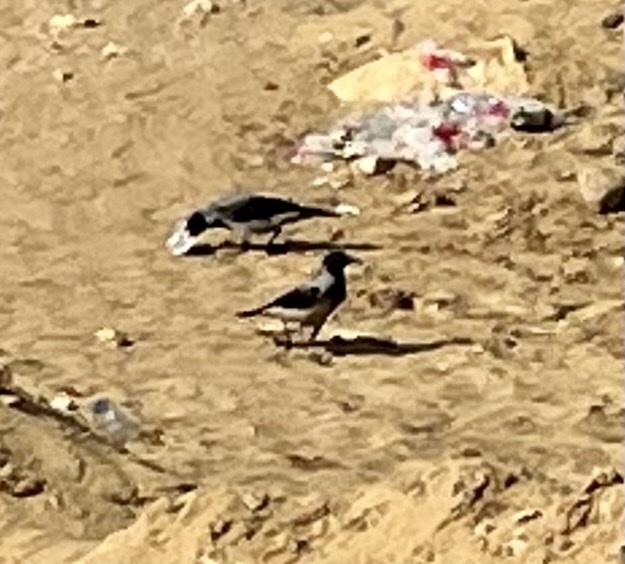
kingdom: Animalia
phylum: Chordata
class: Aves
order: Passeriformes
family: Corvidae
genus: Corvus
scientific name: Corvus cornix
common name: Hooded crow
